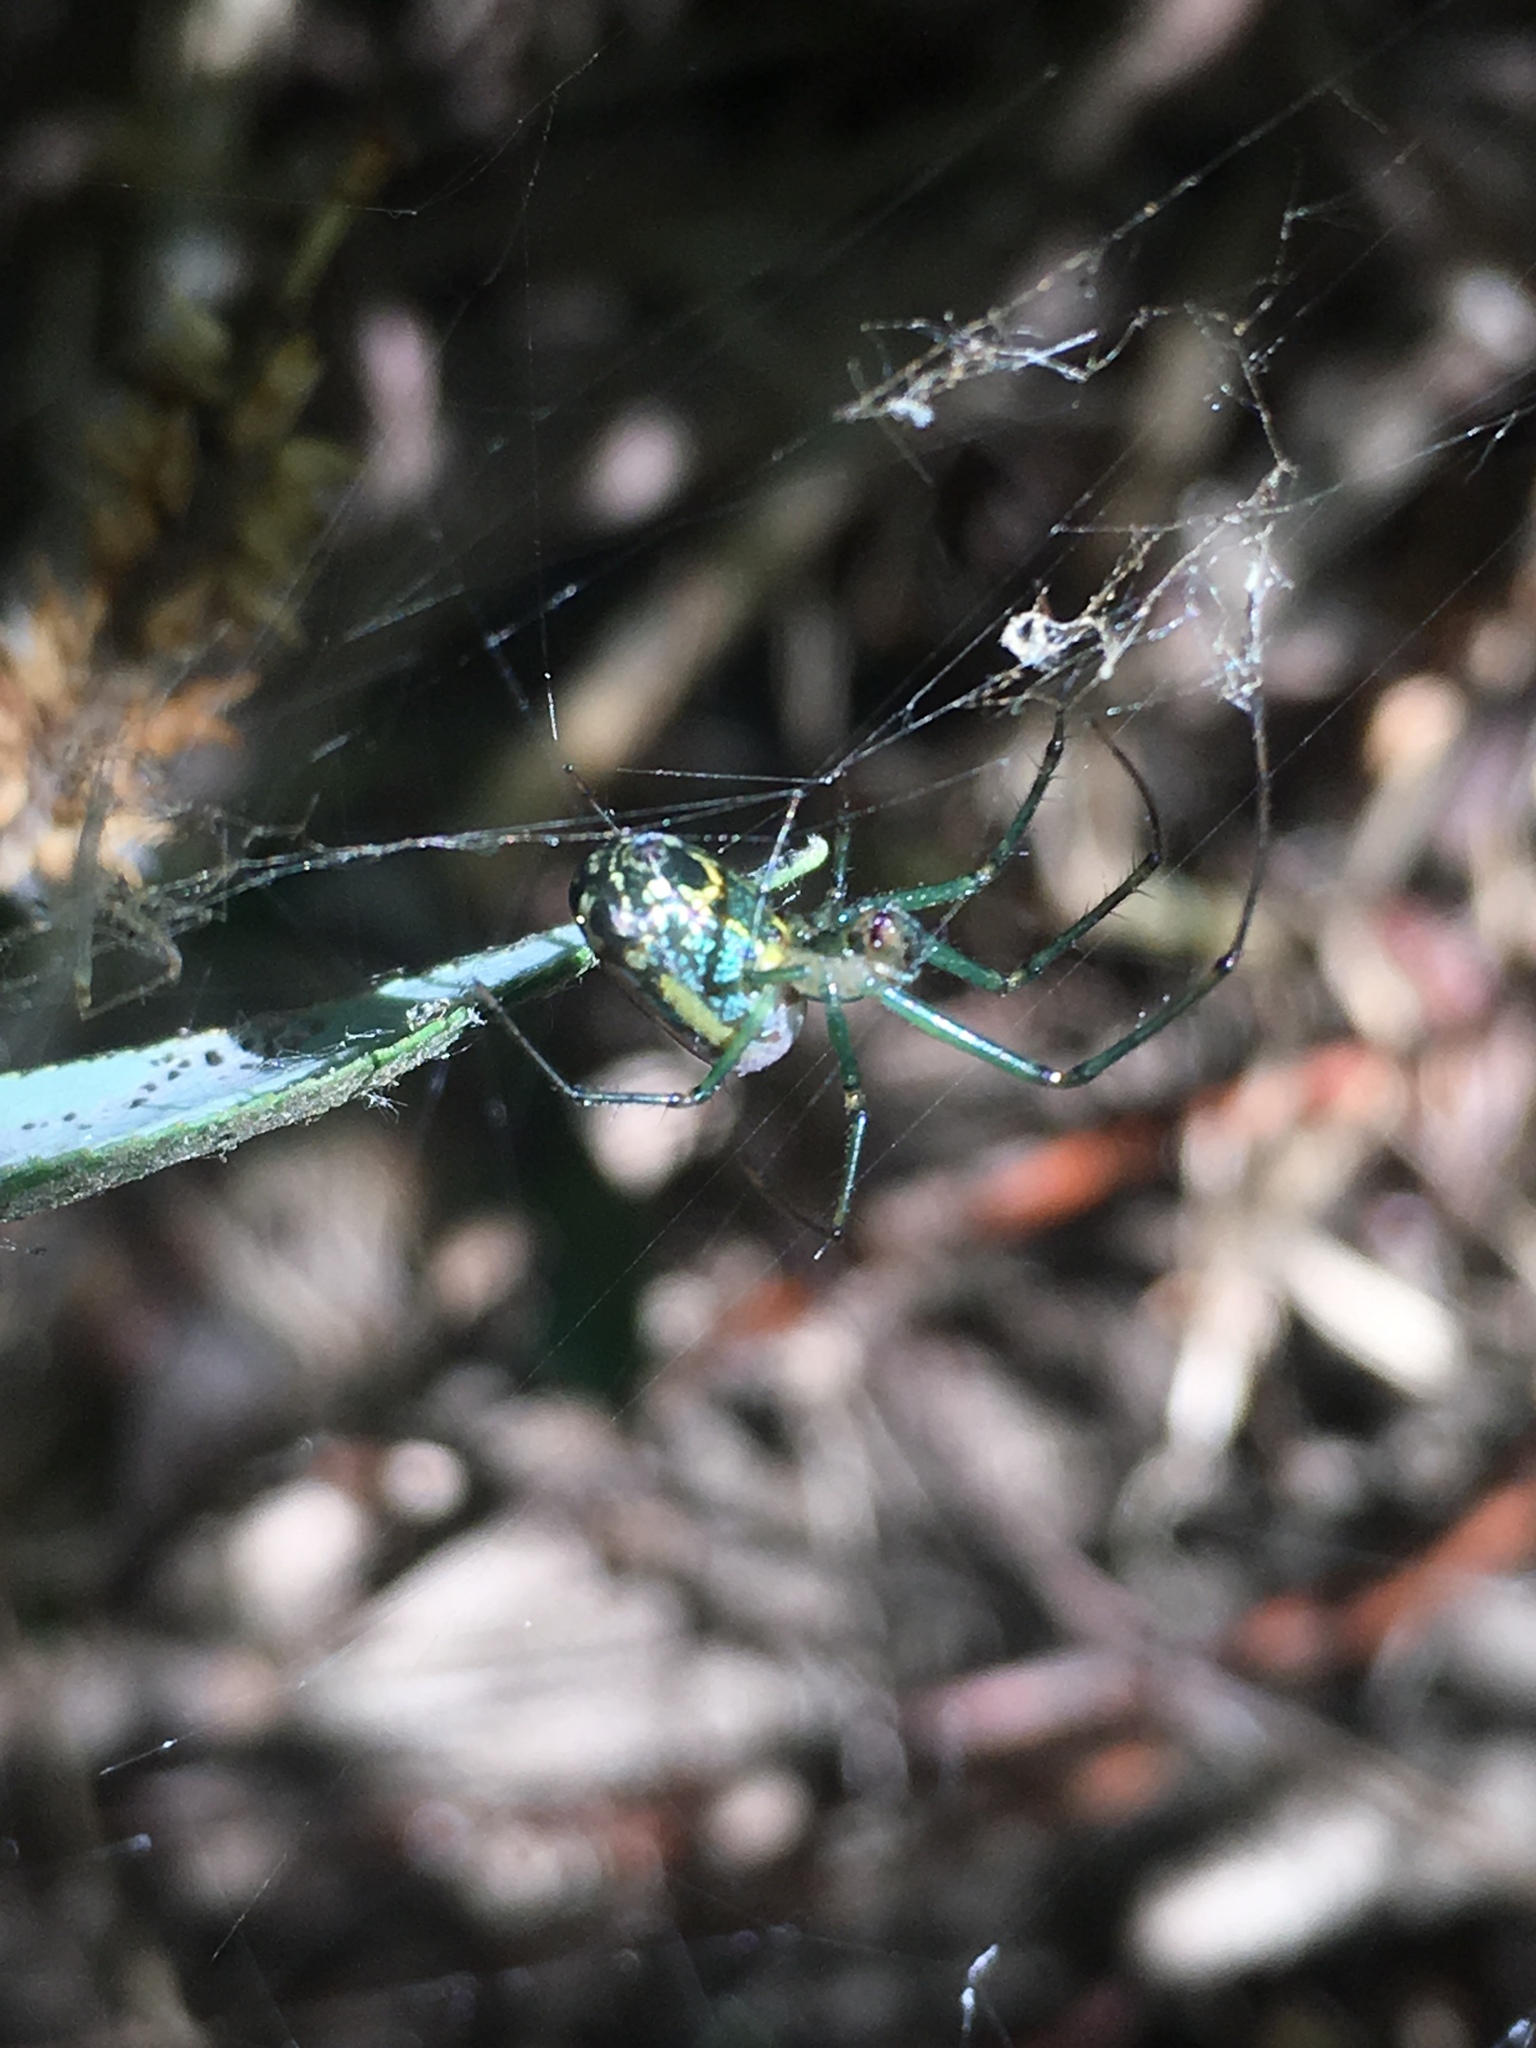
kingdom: Animalia
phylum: Arthropoda
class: Arachnida
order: Araneae
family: Tetragnathidae
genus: Leucauge
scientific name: Leucauge venusta
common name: Longjawed orb weavers
